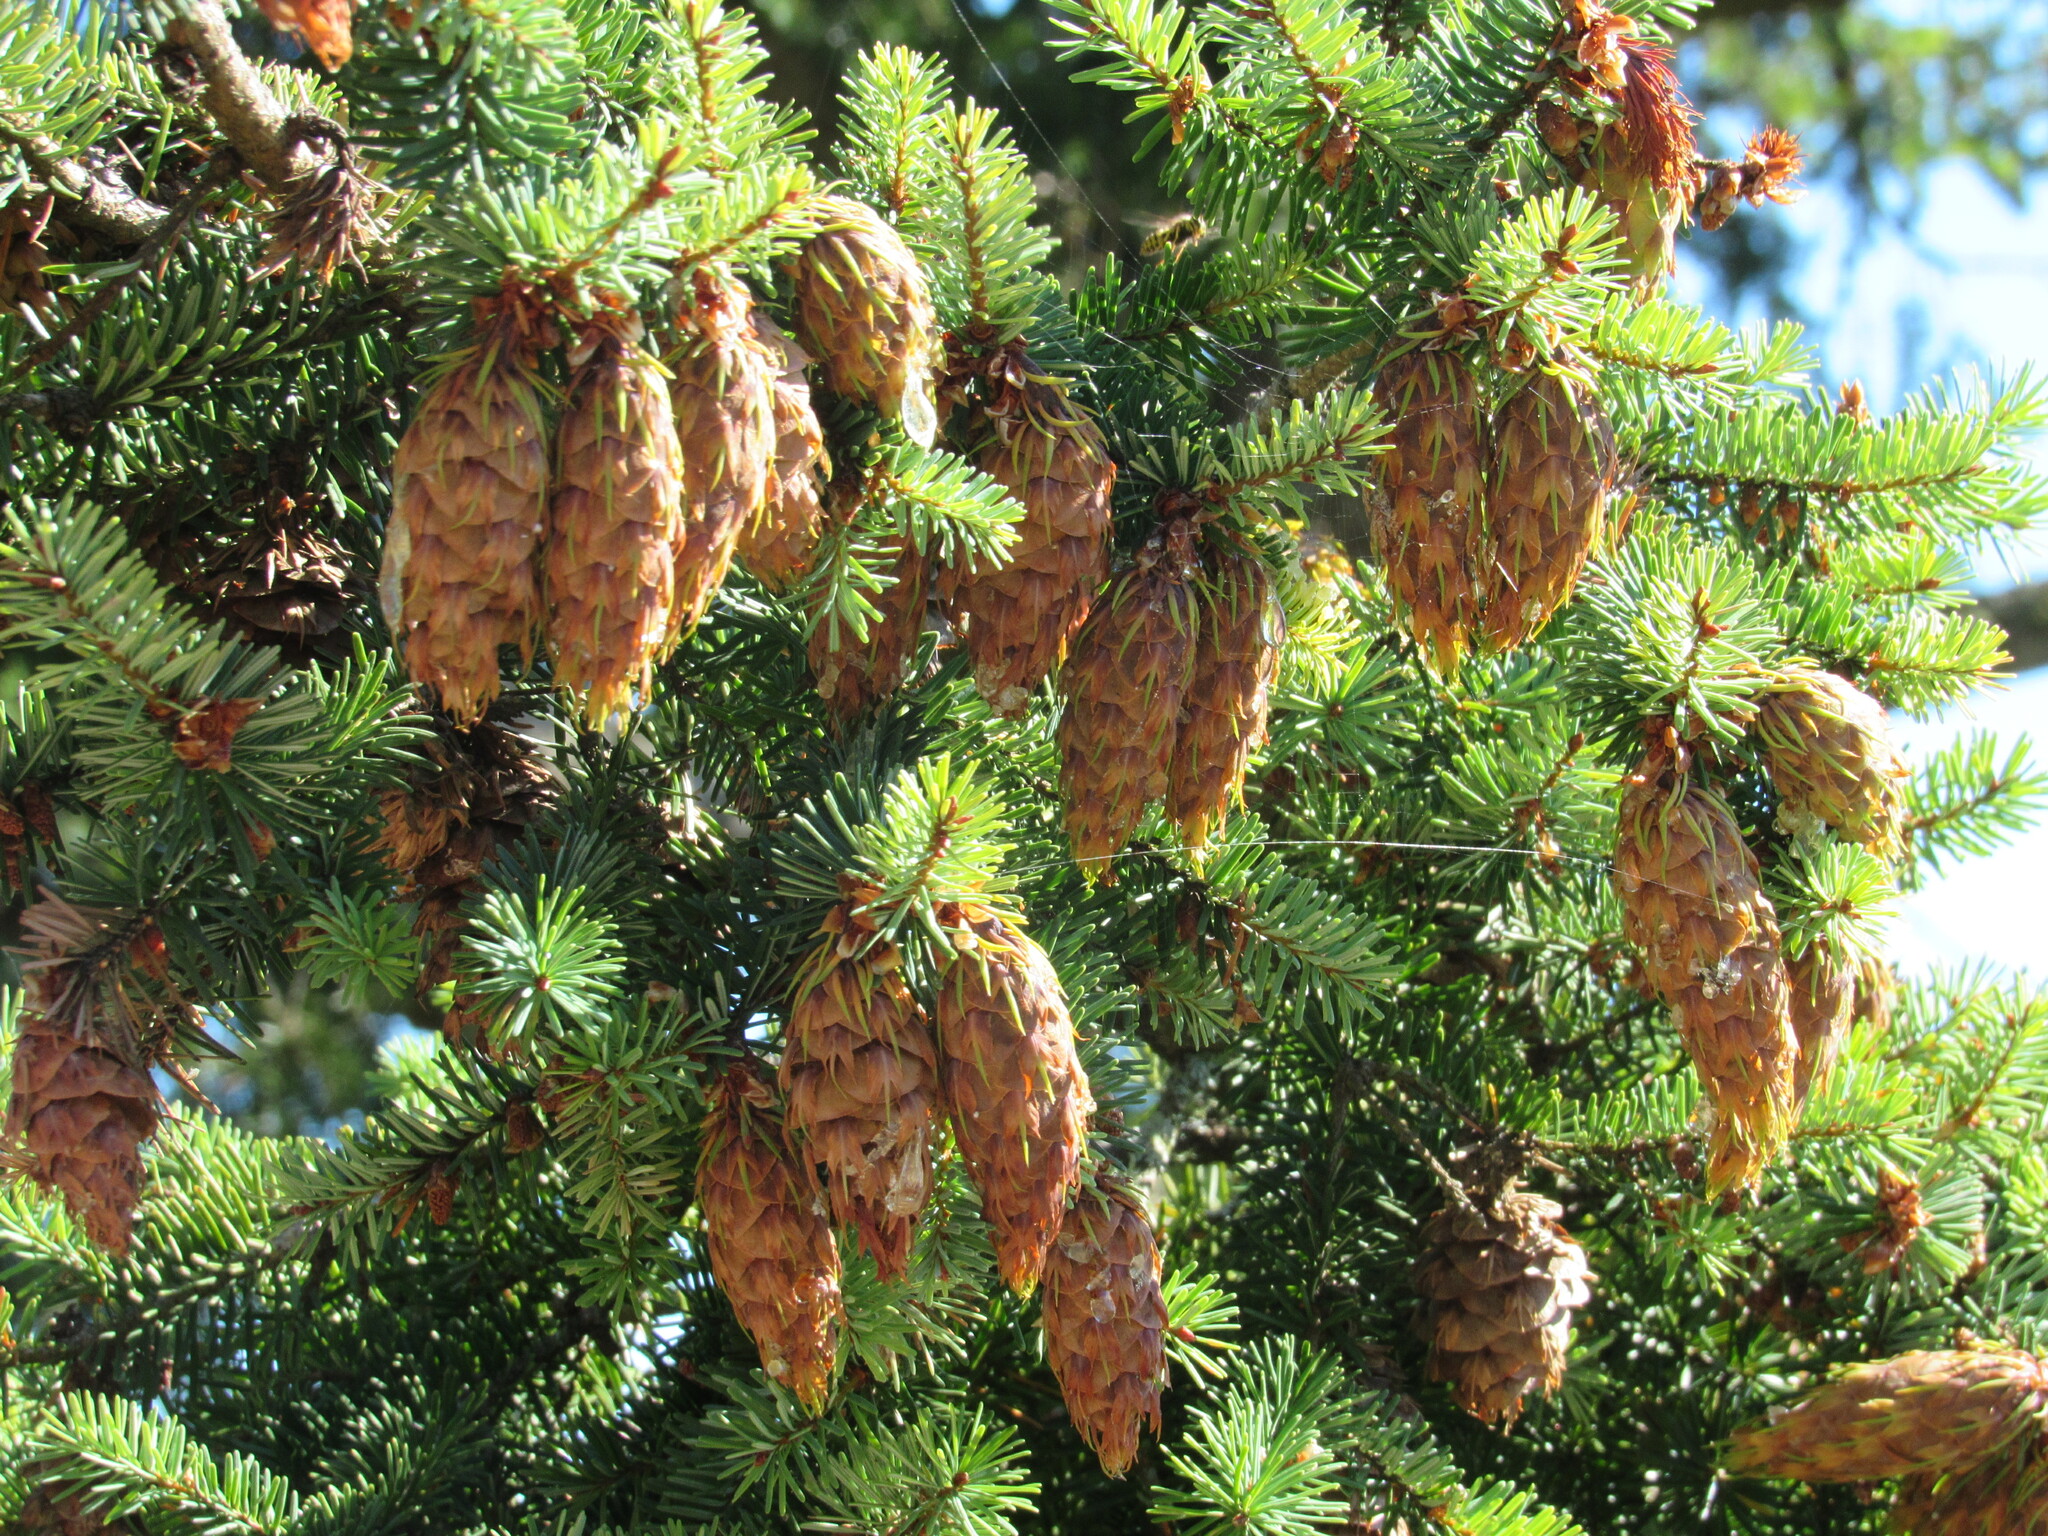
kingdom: Plantae
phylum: Tracheophyta
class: Pinopsida
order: Pinales
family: Pinaceae
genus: Pseudotsuga
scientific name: Pseudotsuga menziesii
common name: Douglas fir
